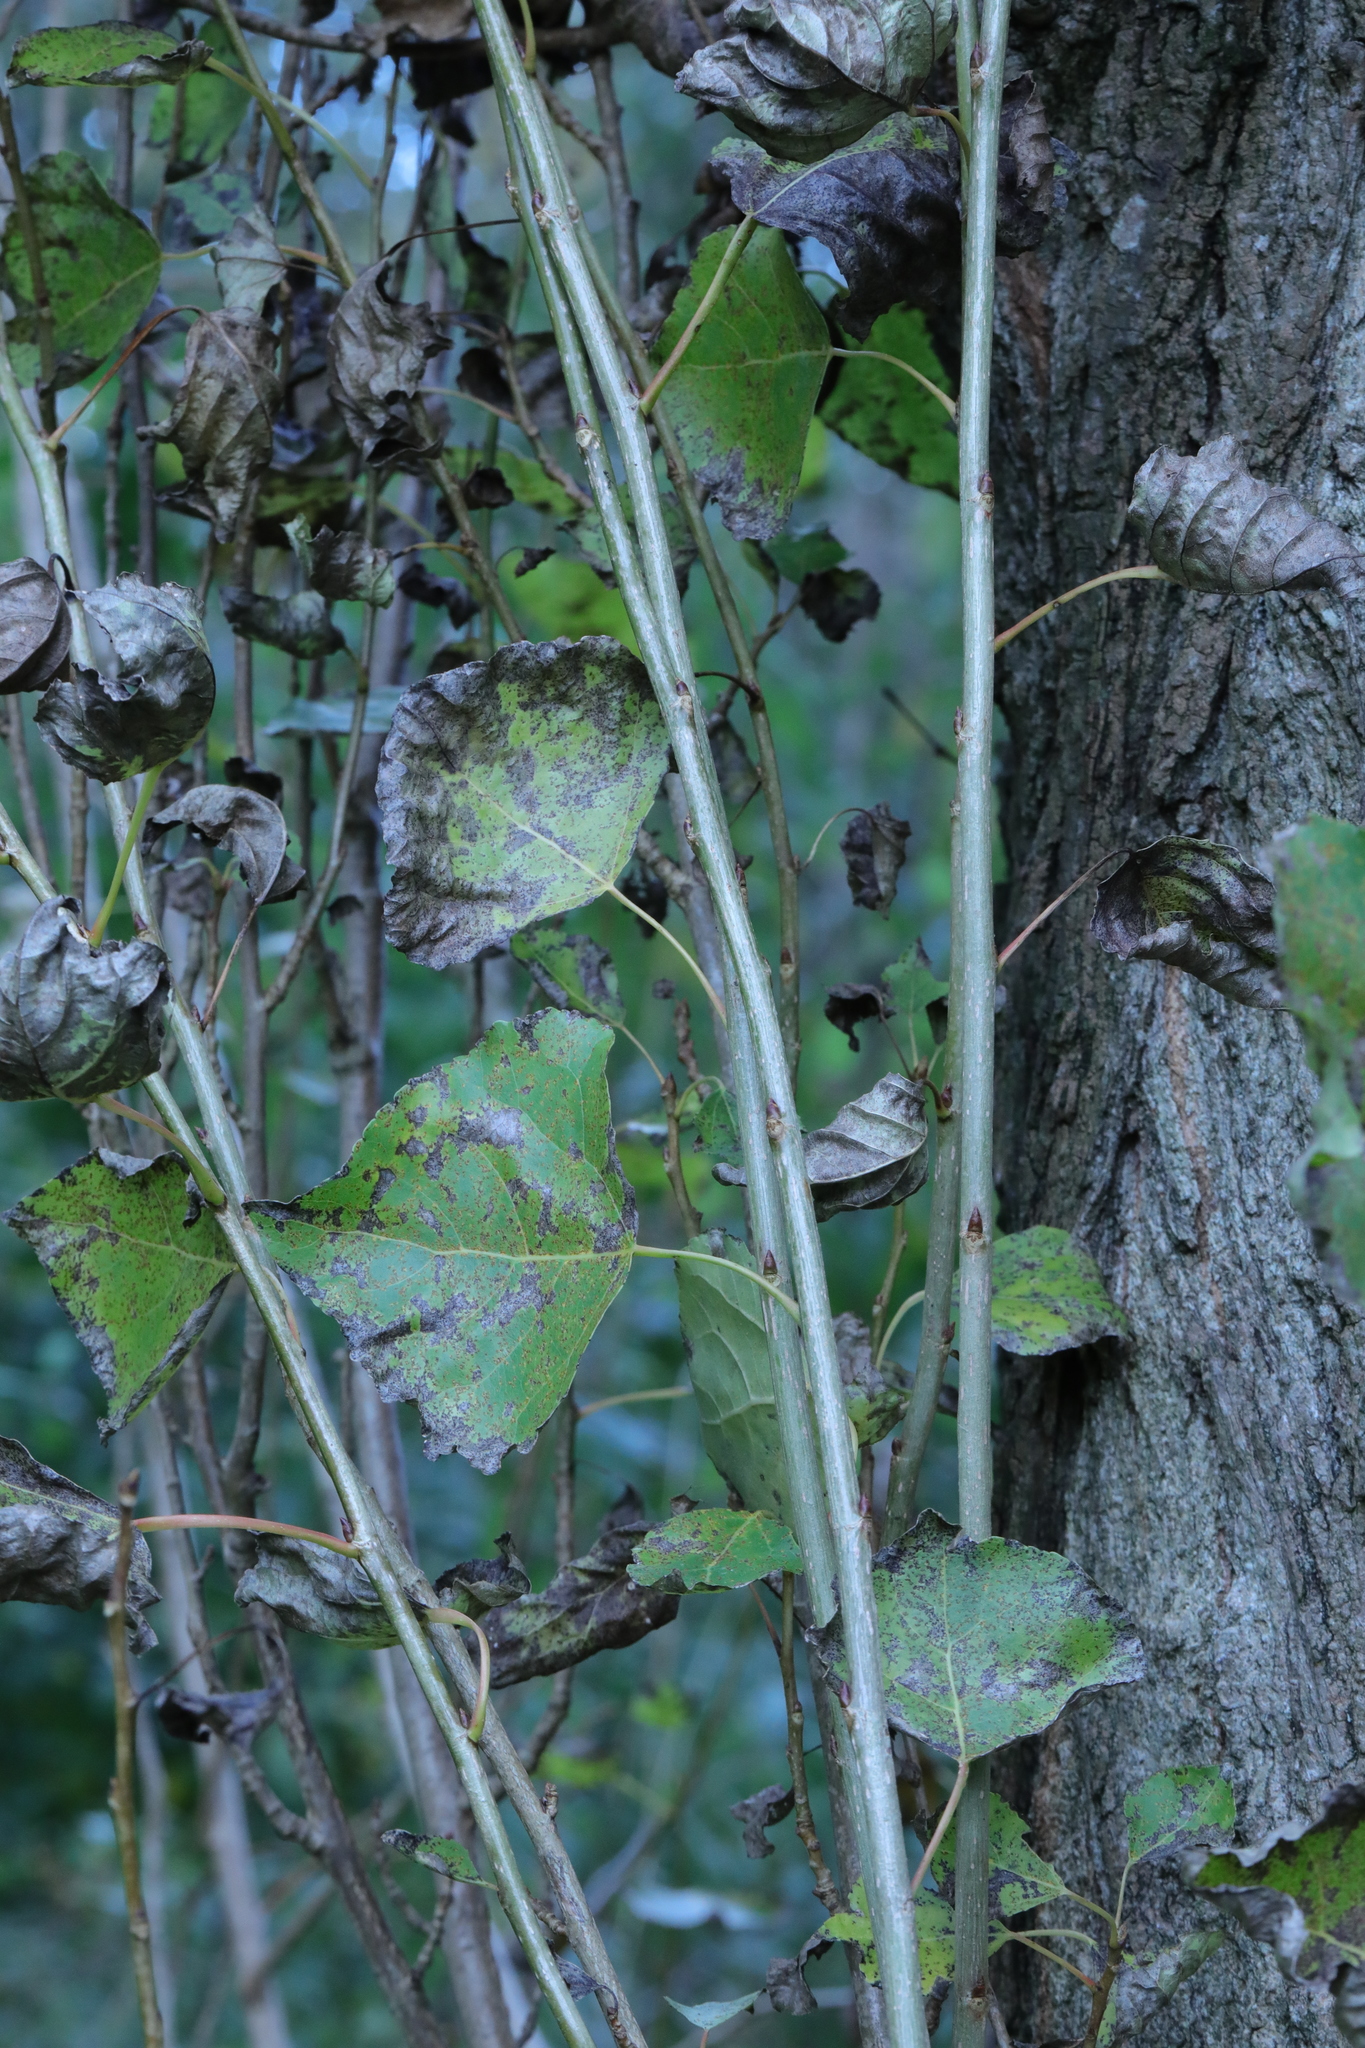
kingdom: Plantae
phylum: Tracheophyta
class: Magnoliopsida
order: Malpighiales
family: Salicaceae
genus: Populus
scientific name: Populus nigra
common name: Black poplar
